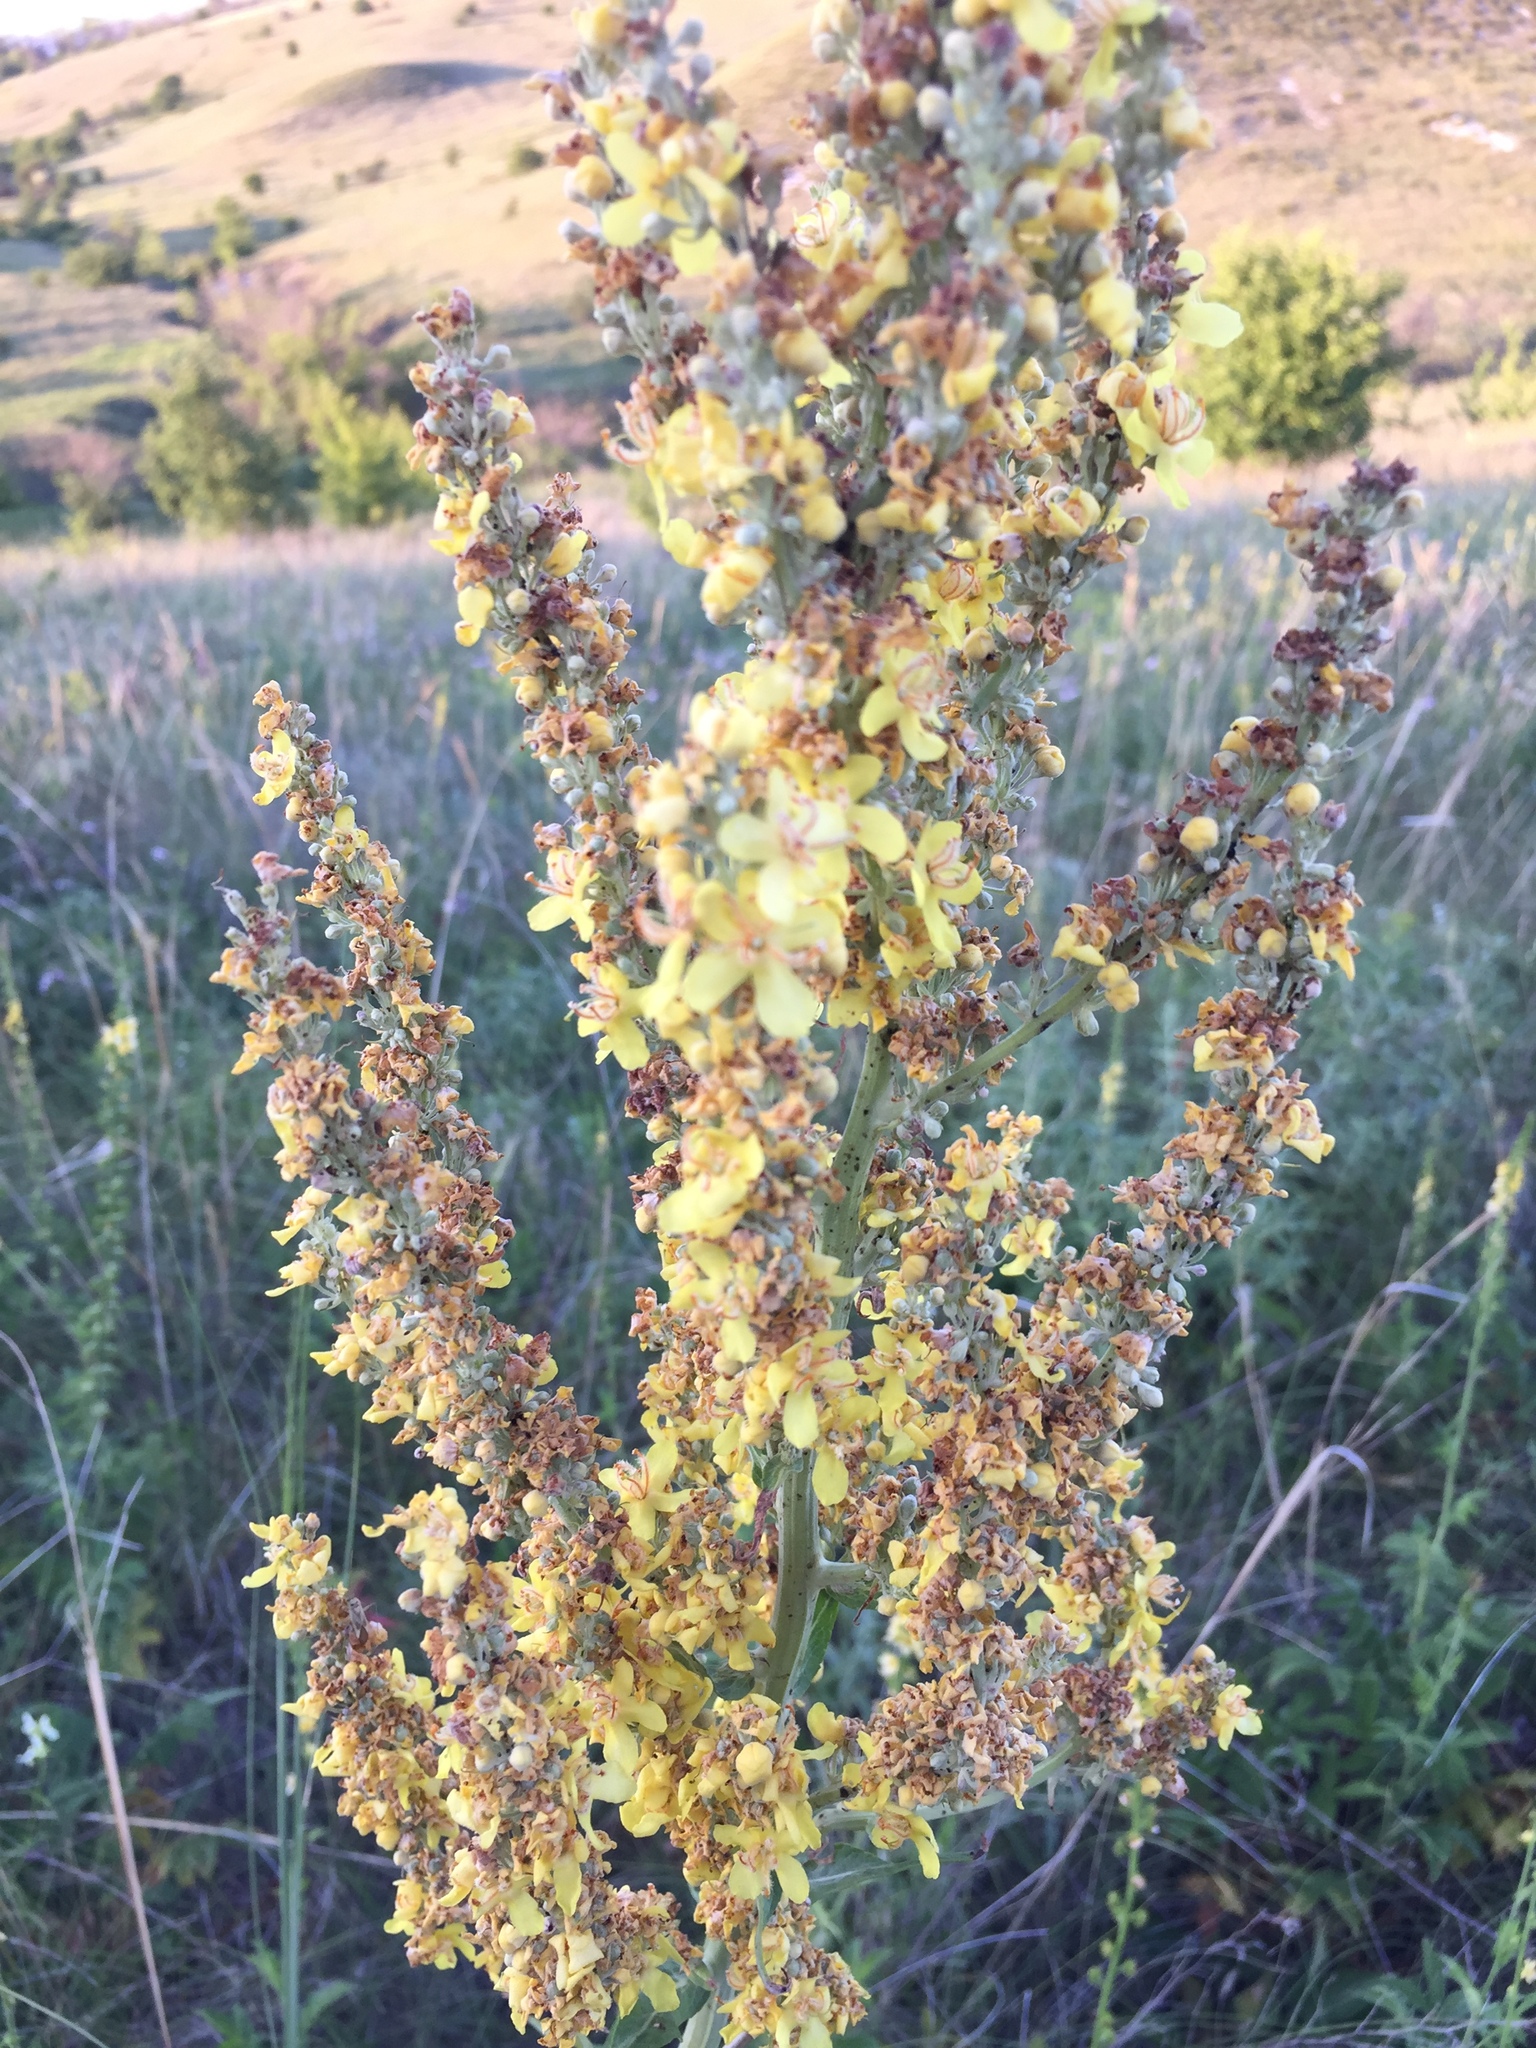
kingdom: Plantae
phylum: Tracheophyta
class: Magnoliopsida
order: Lamiales
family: Scrophulariaceae
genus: Verbascum
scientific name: Verbascum lychnitis
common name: White mullein
